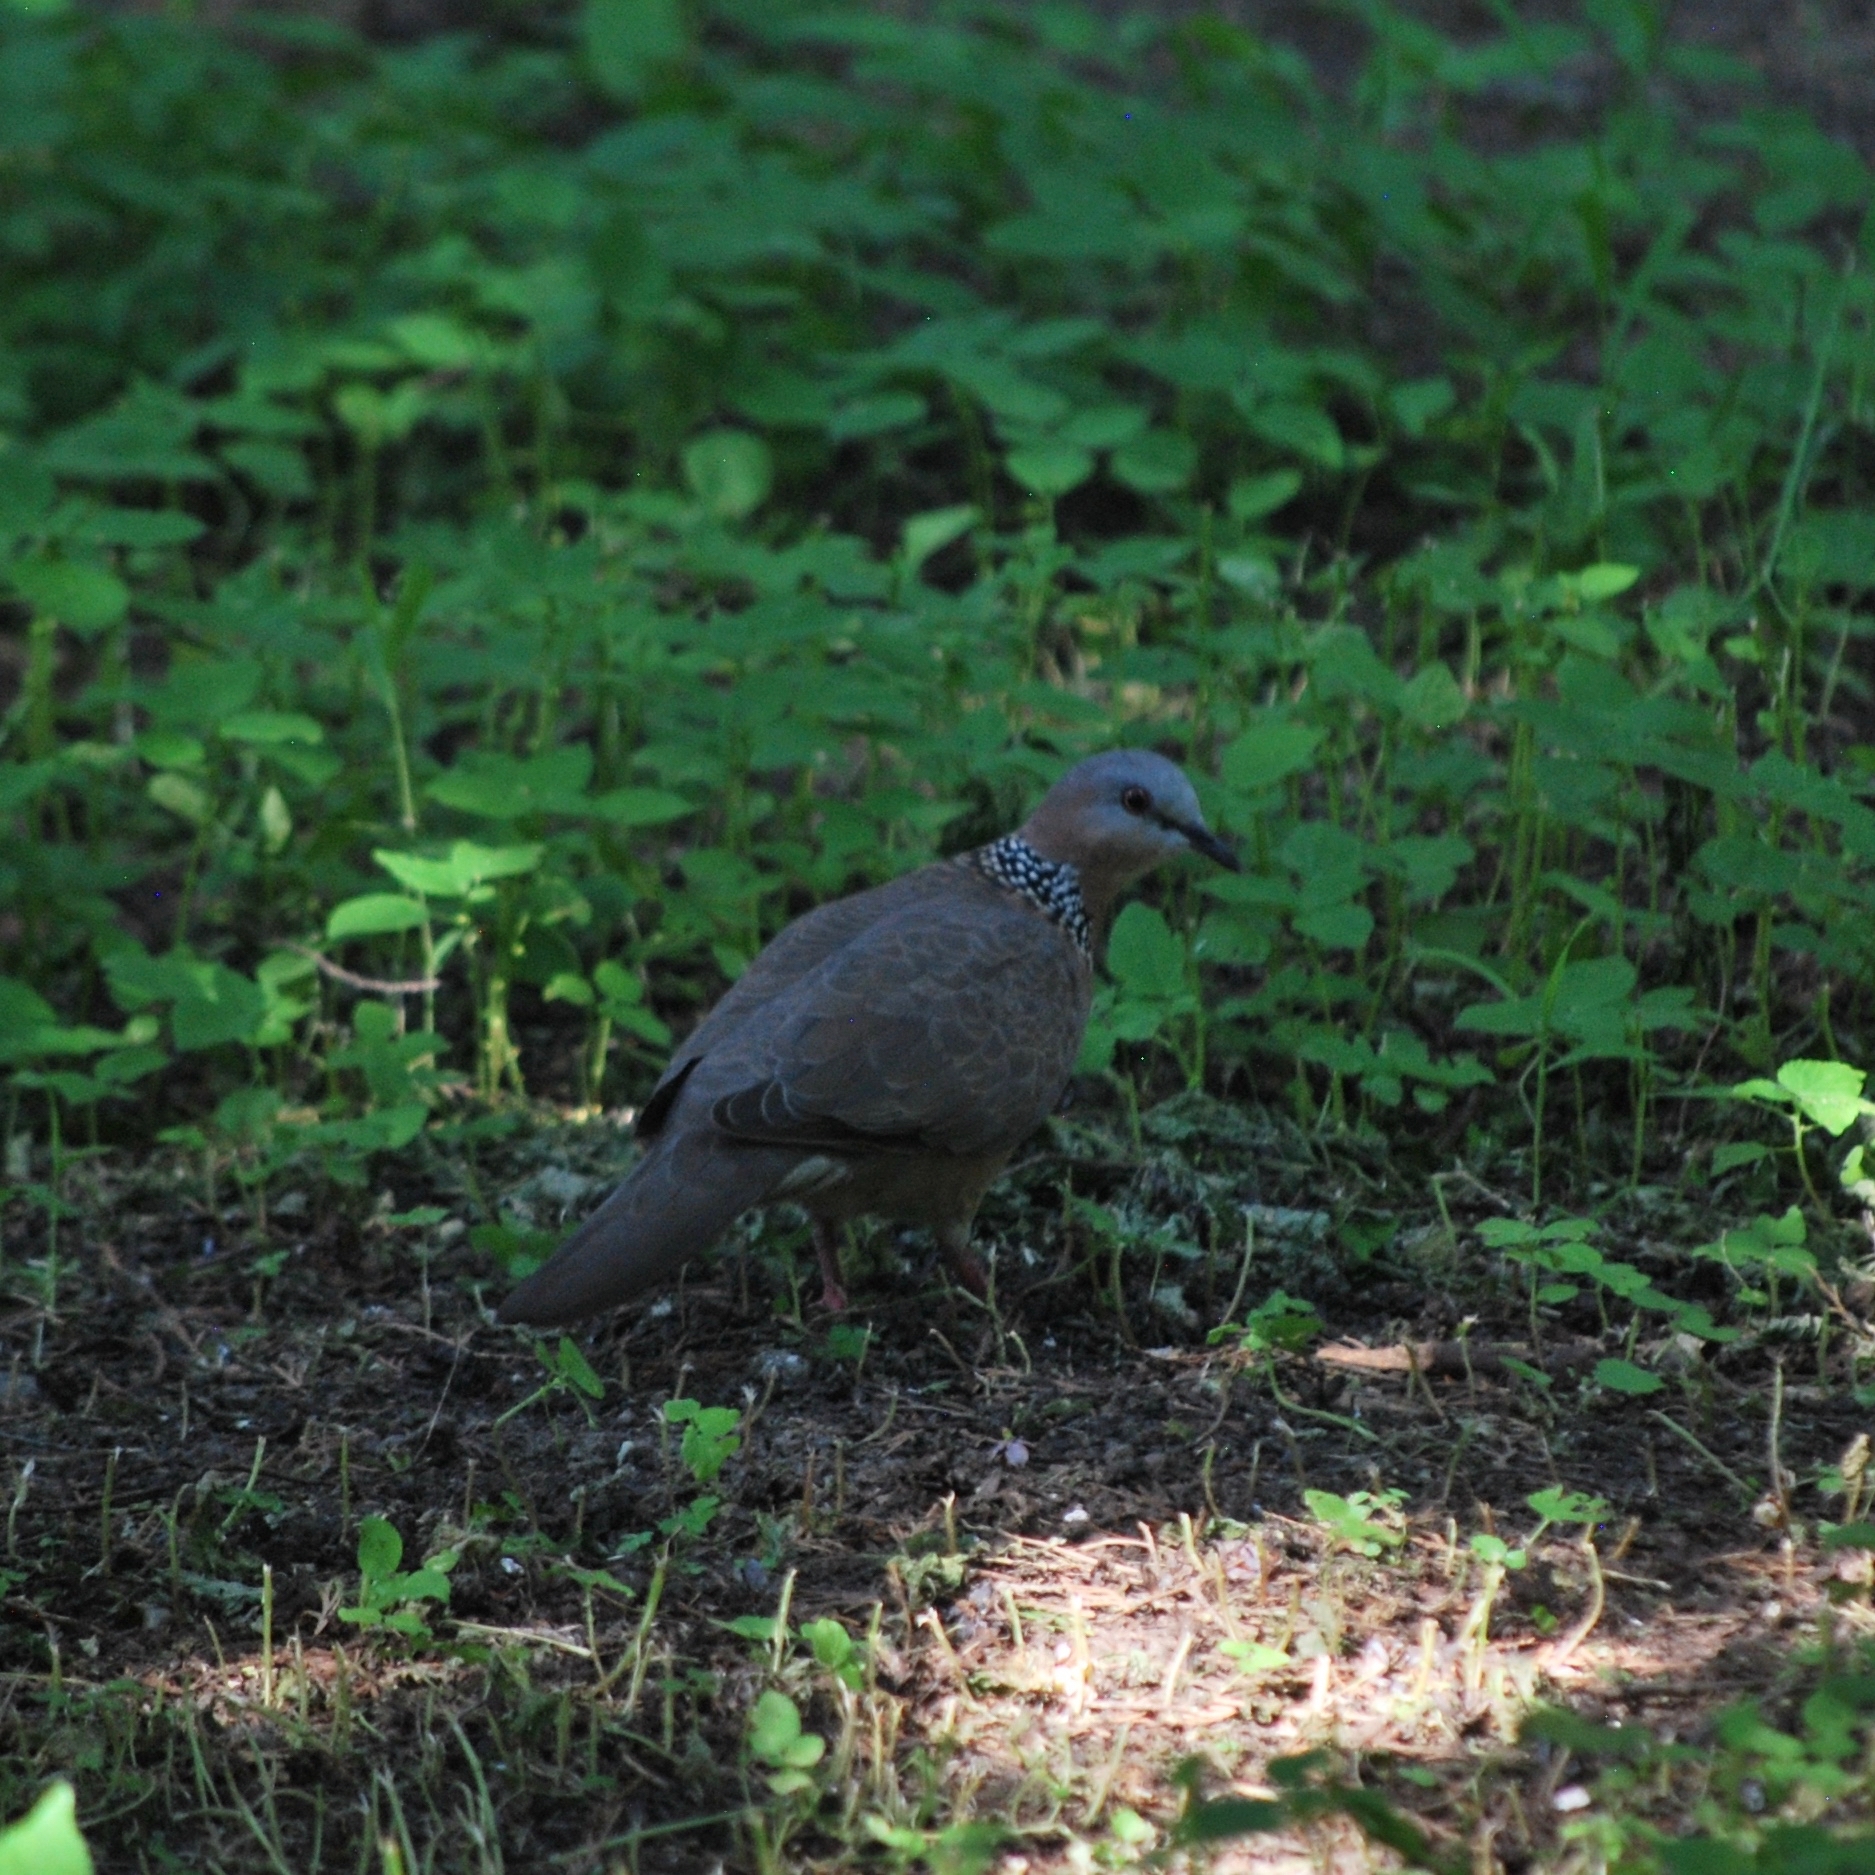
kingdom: Animalia
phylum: Chordata
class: Aves
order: Columbiformes
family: Columbidae
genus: Spilopelia
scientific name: Spilopelia chinensis
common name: Spotted dove
